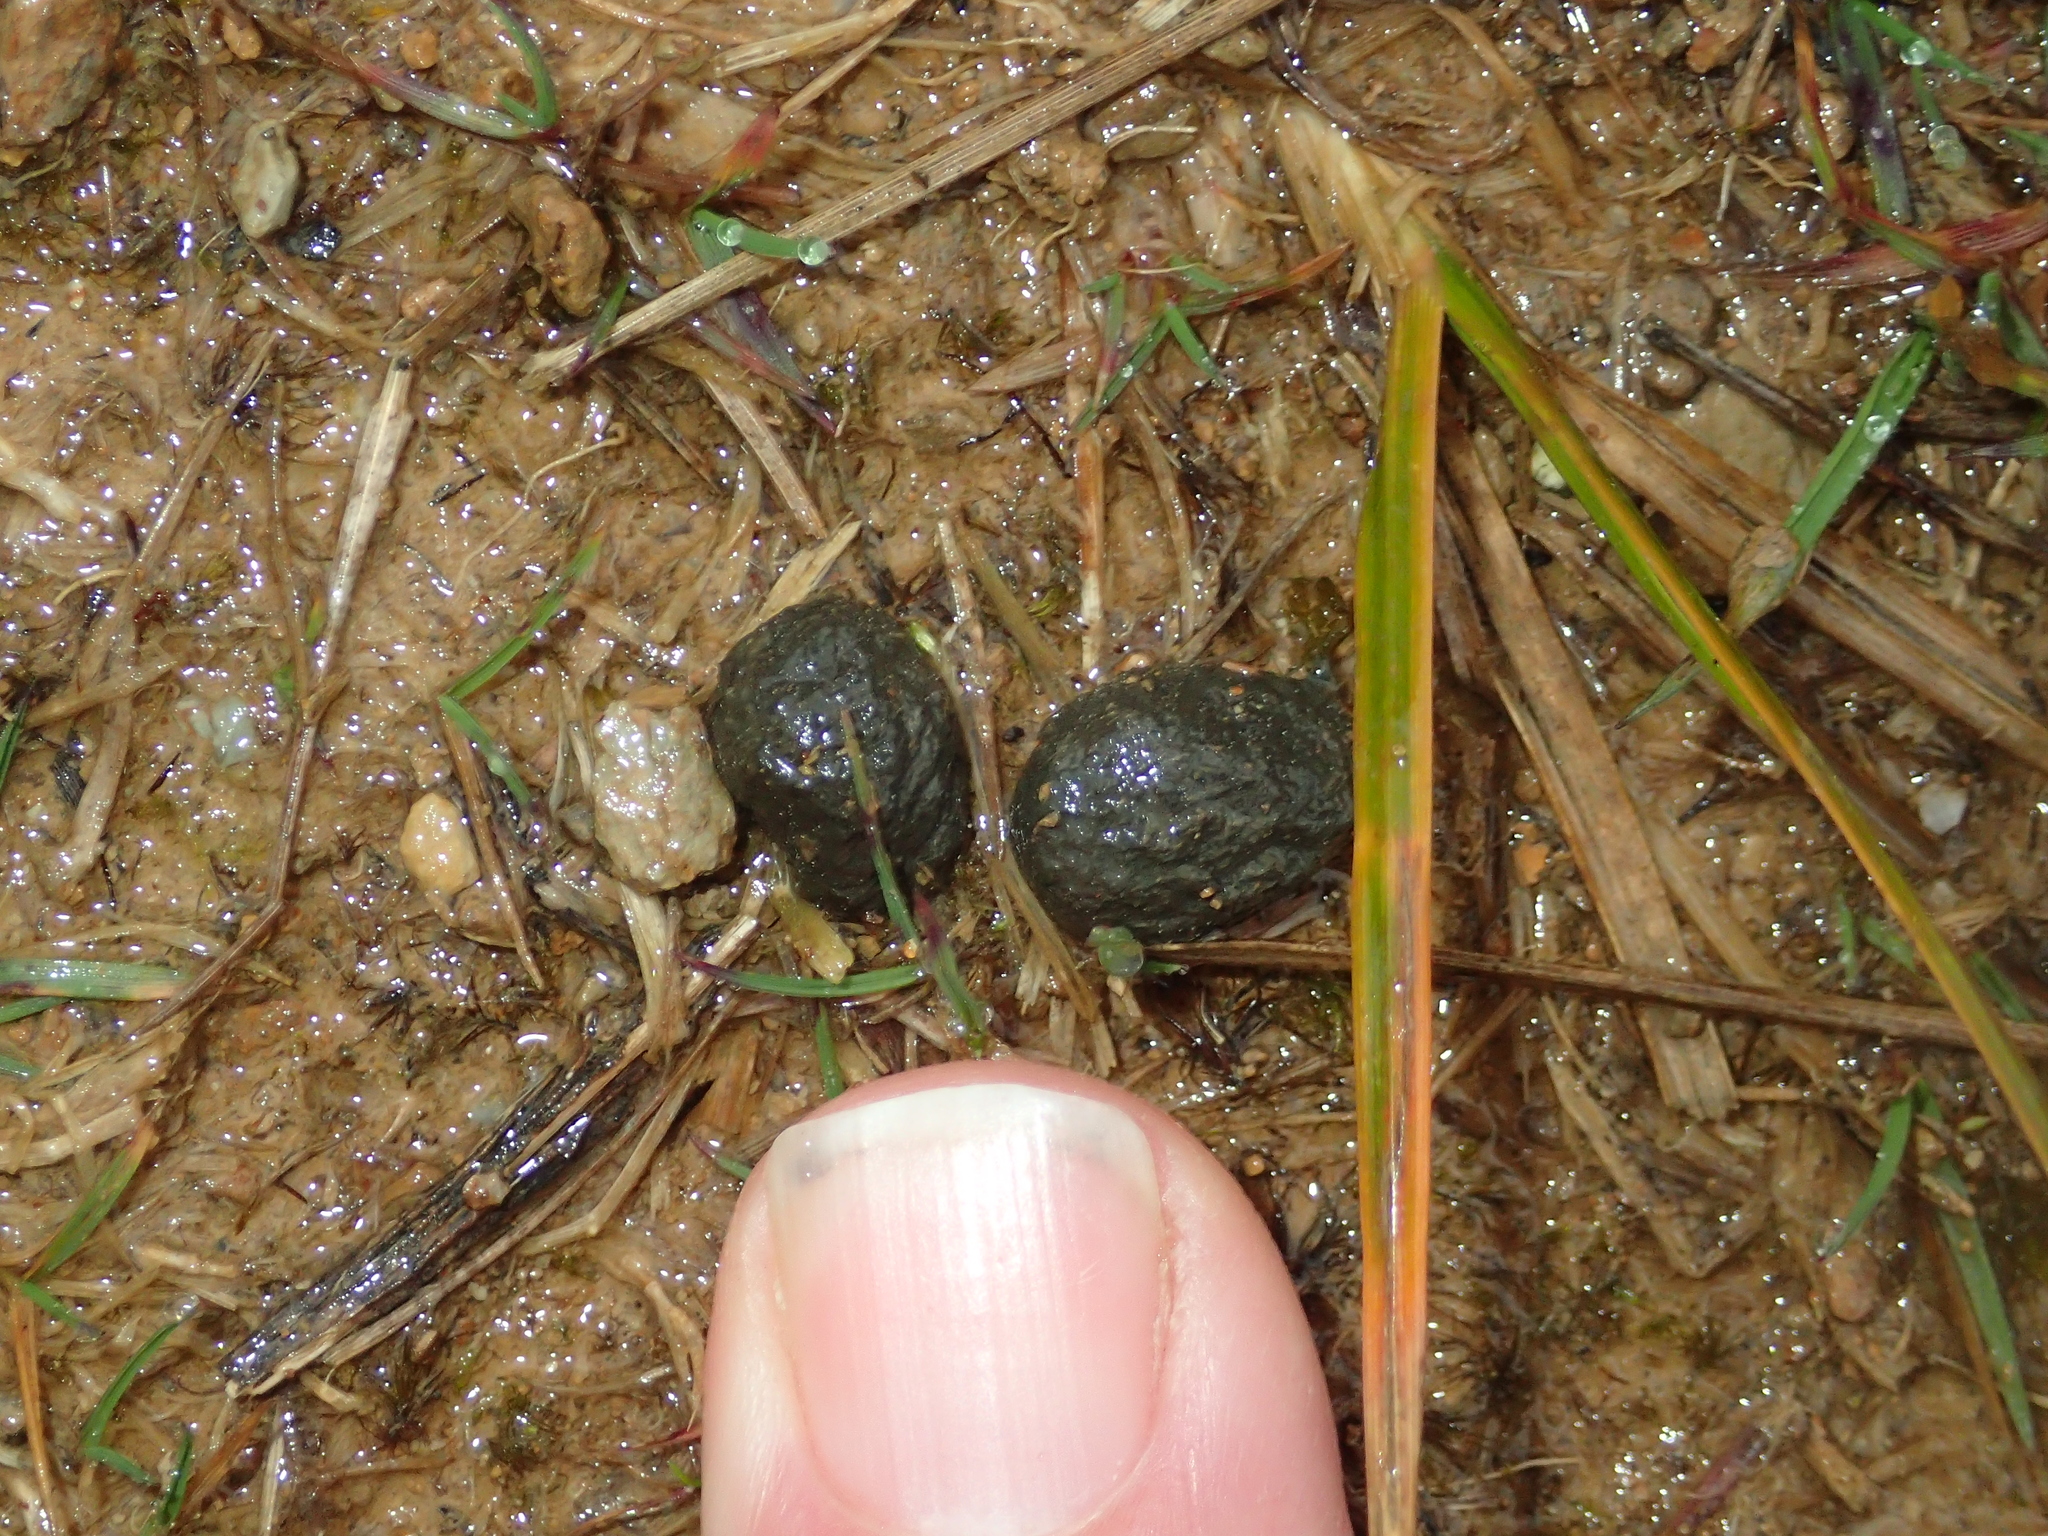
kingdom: Animalia
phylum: Chordata
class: Mammalia
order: Lagomorpha
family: Leporidae
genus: Oryctolagus
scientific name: Oryctolagus cuniculus
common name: European rabbit
